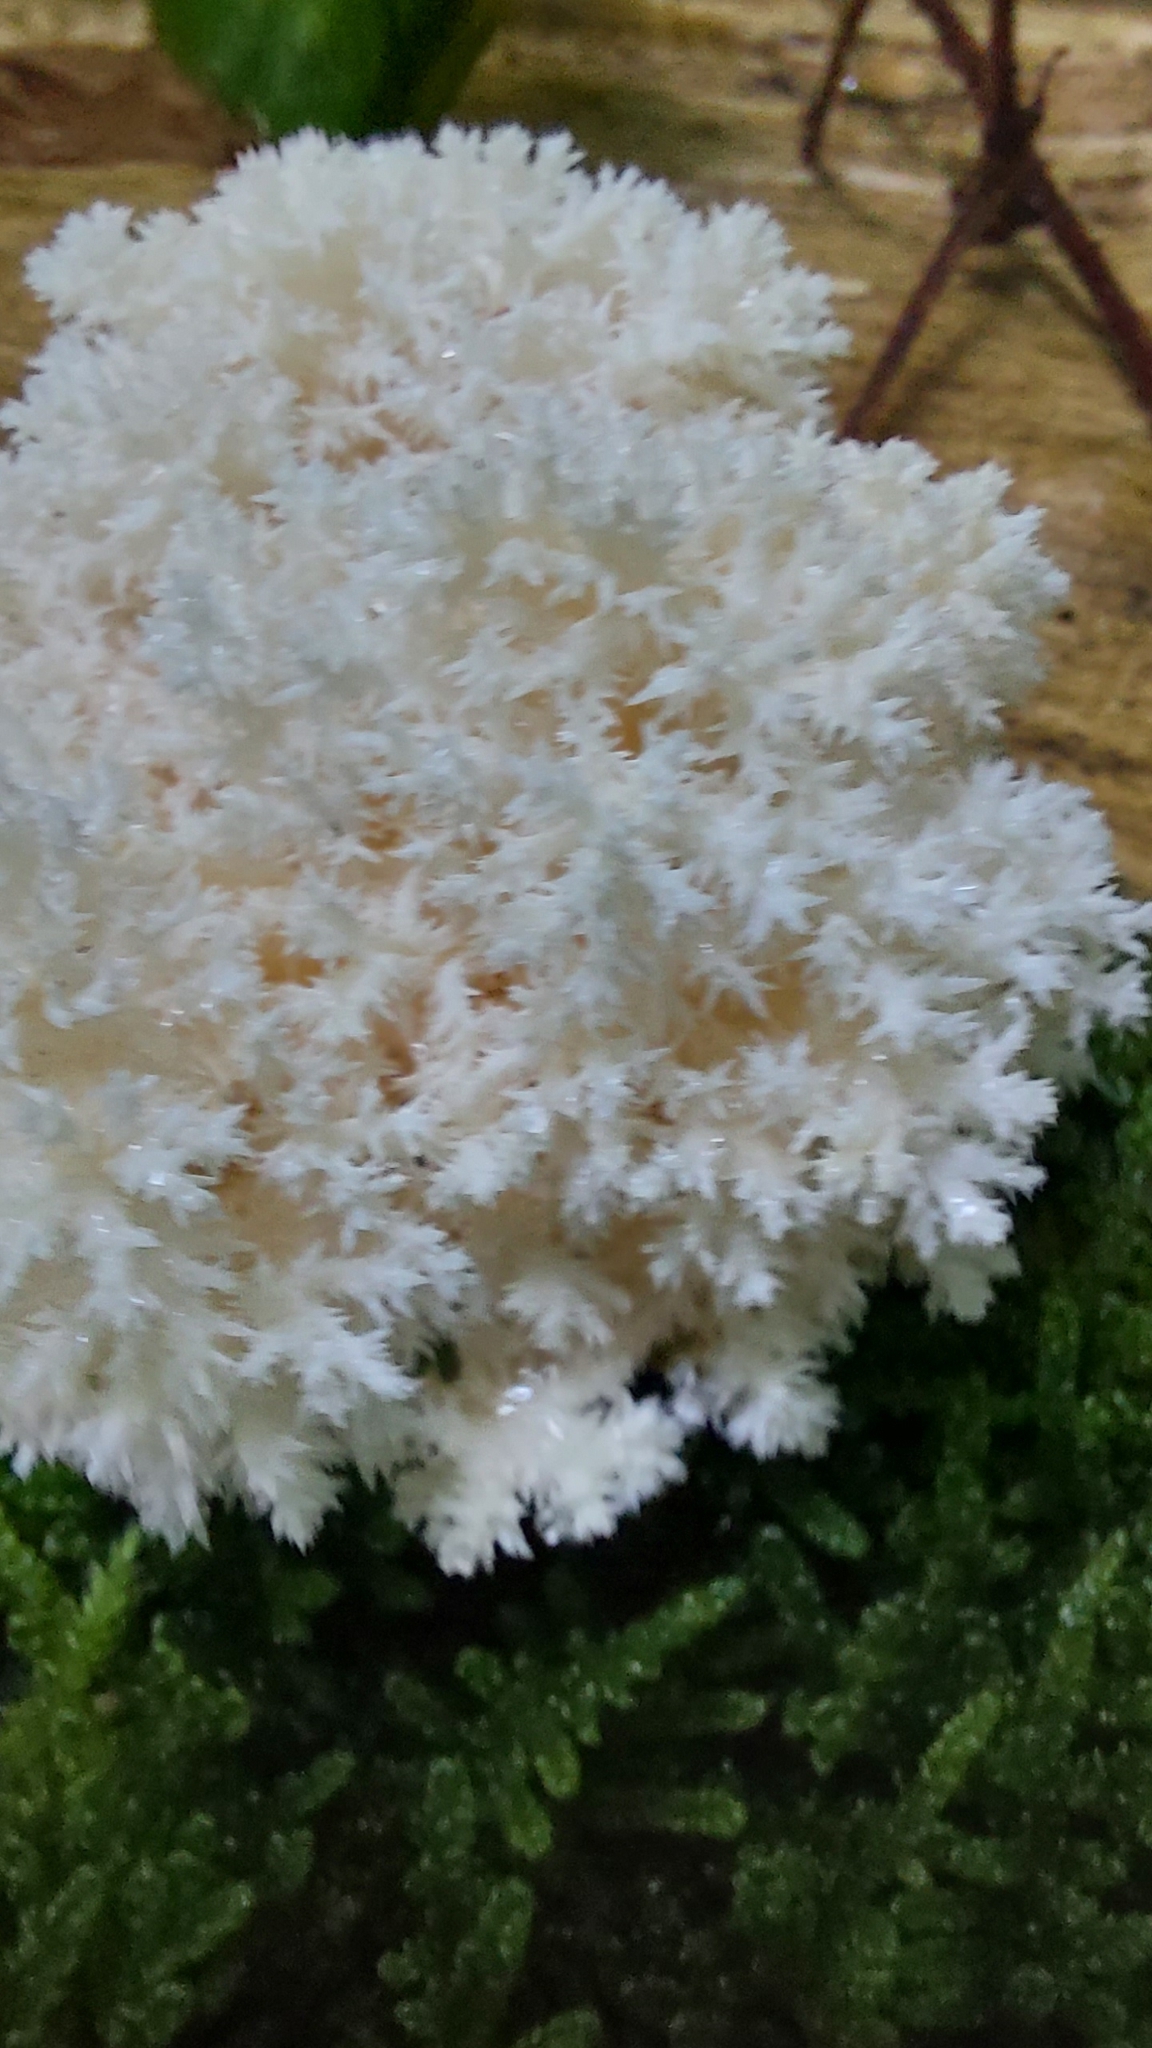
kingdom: Fungi
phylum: Basidiomycota
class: Agaricomycetes
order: Russulales
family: Hericiaceae
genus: Hericium
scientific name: Hericium coralloides
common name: Coral tooth
